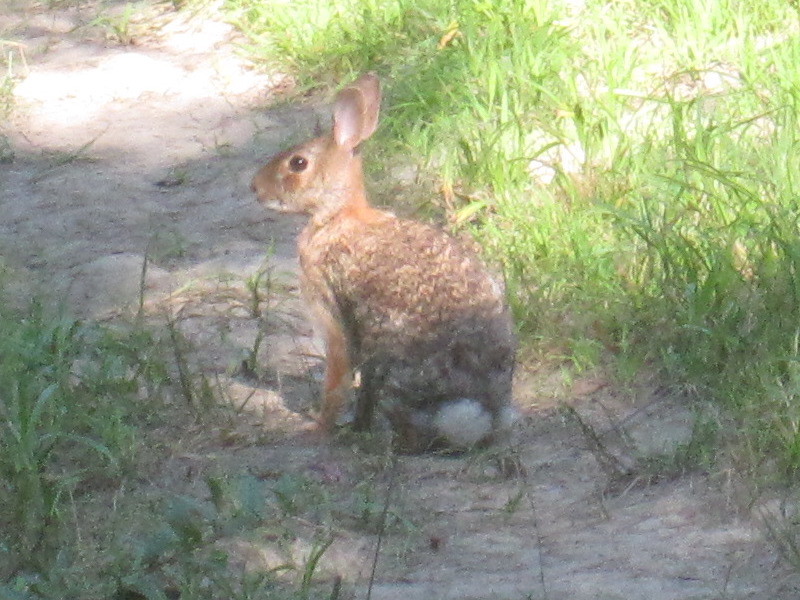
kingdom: Animalia
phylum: Chordata
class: Mammalia
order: Lagomorpha
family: Leporidae
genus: Sylvilagus
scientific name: Sylvilagus floridanus
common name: Eastern cottontail
